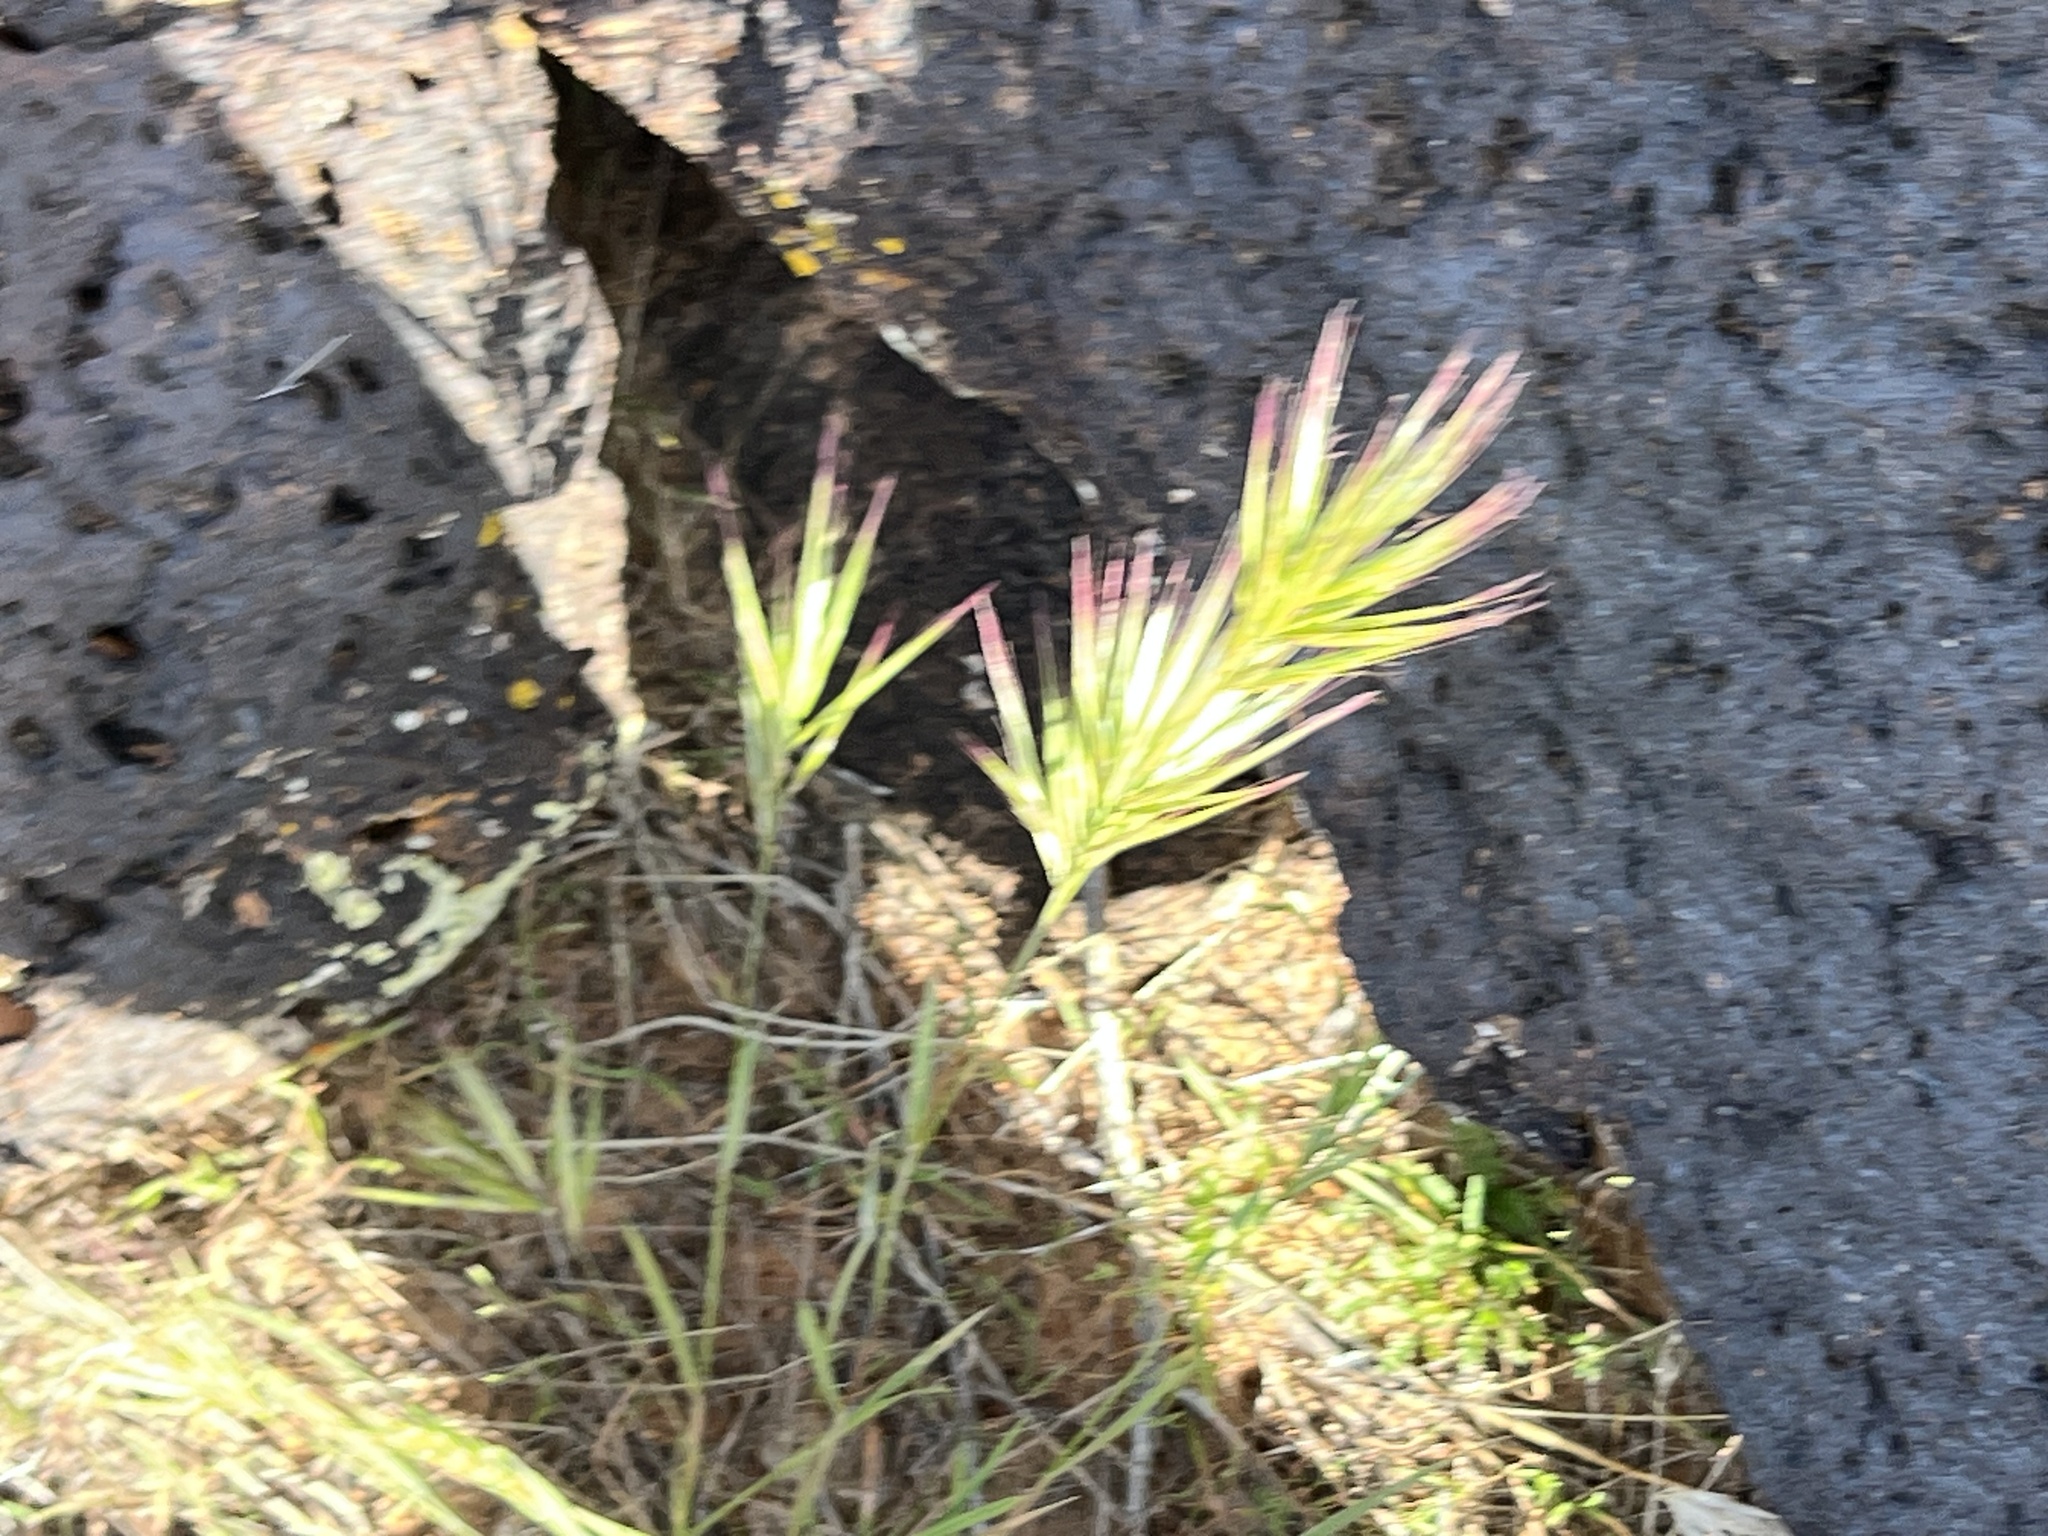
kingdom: Plantae
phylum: Tracheophyta
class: Liliopsida
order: Poales
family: Poaceae
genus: Bromus
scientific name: Bromus rubens
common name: Red brome
